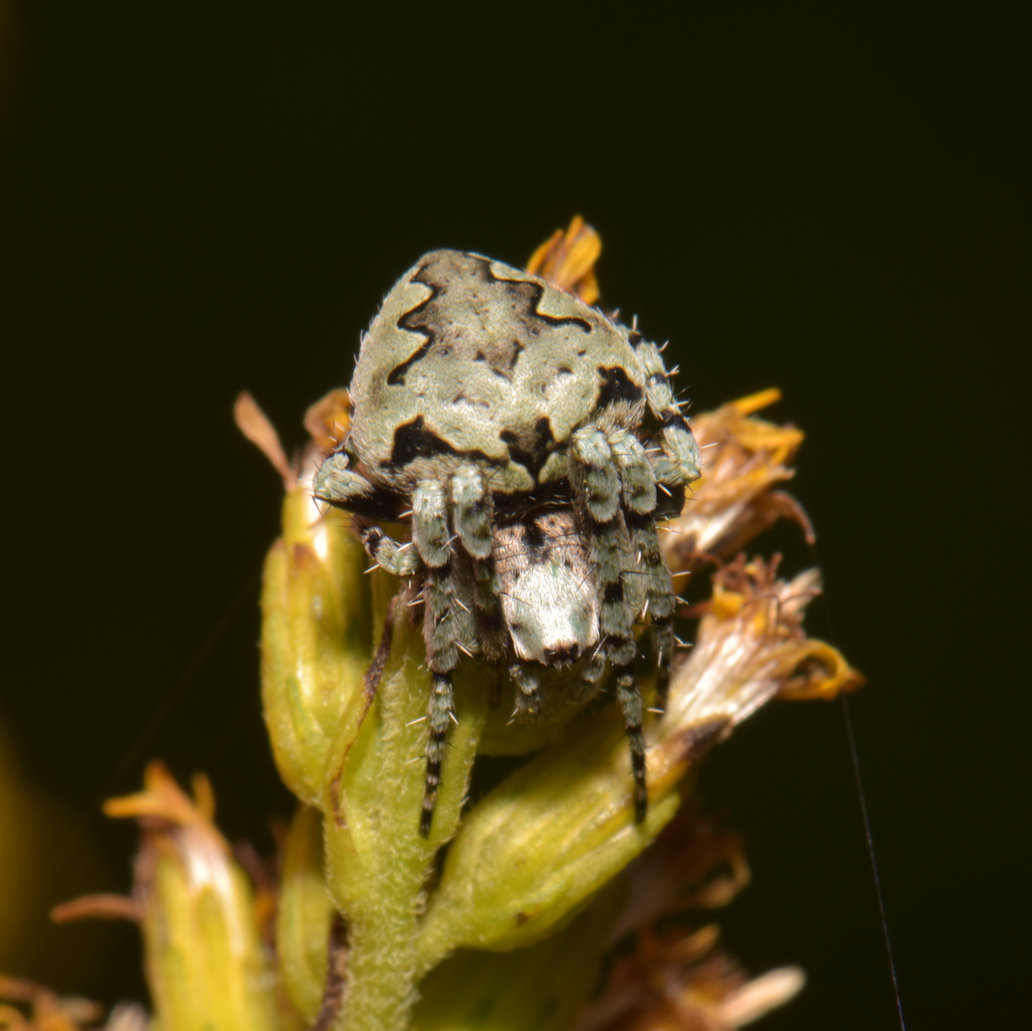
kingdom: Animalia
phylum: Arthropoda
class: Arachnida
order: Araneae
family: Araneidae
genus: Eustala
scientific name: Eustala anastera
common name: Orb weavers
